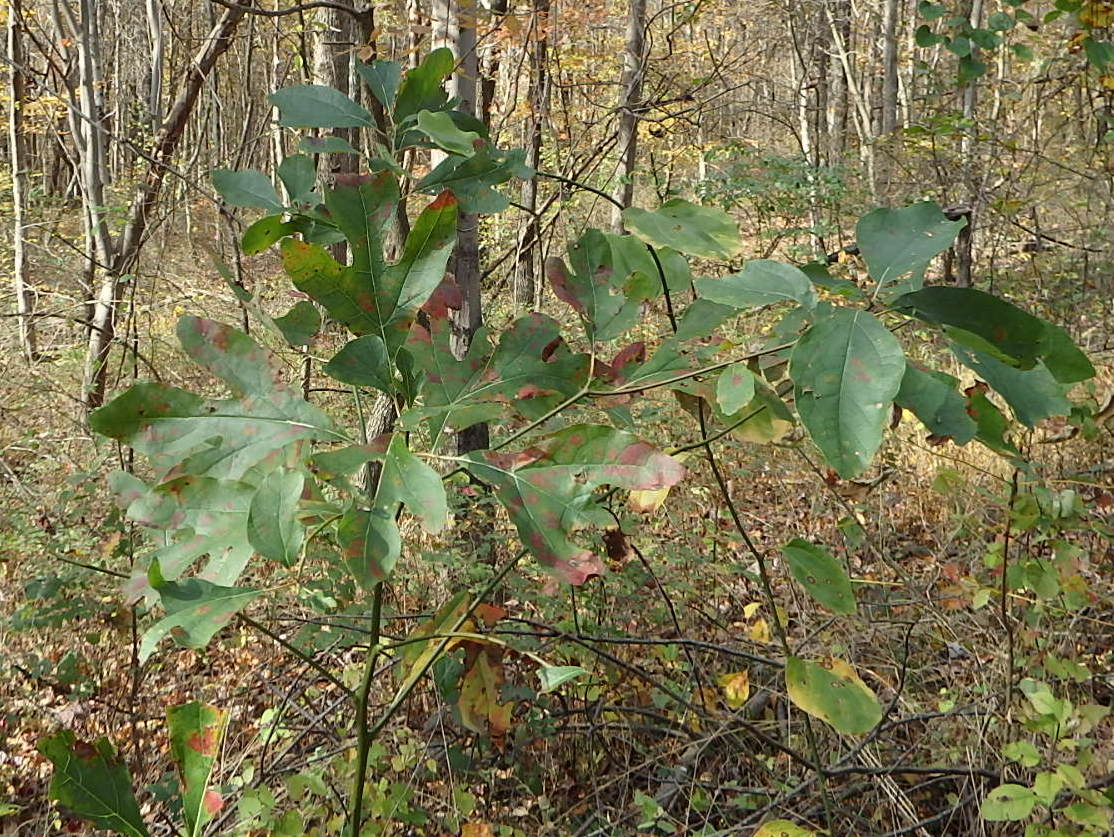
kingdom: Plantae
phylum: Tracheophyta
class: Magnoliopsida
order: Laurales
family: Lauraceae
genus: Sassafras
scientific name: Sassafras albidum
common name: Sassafras
